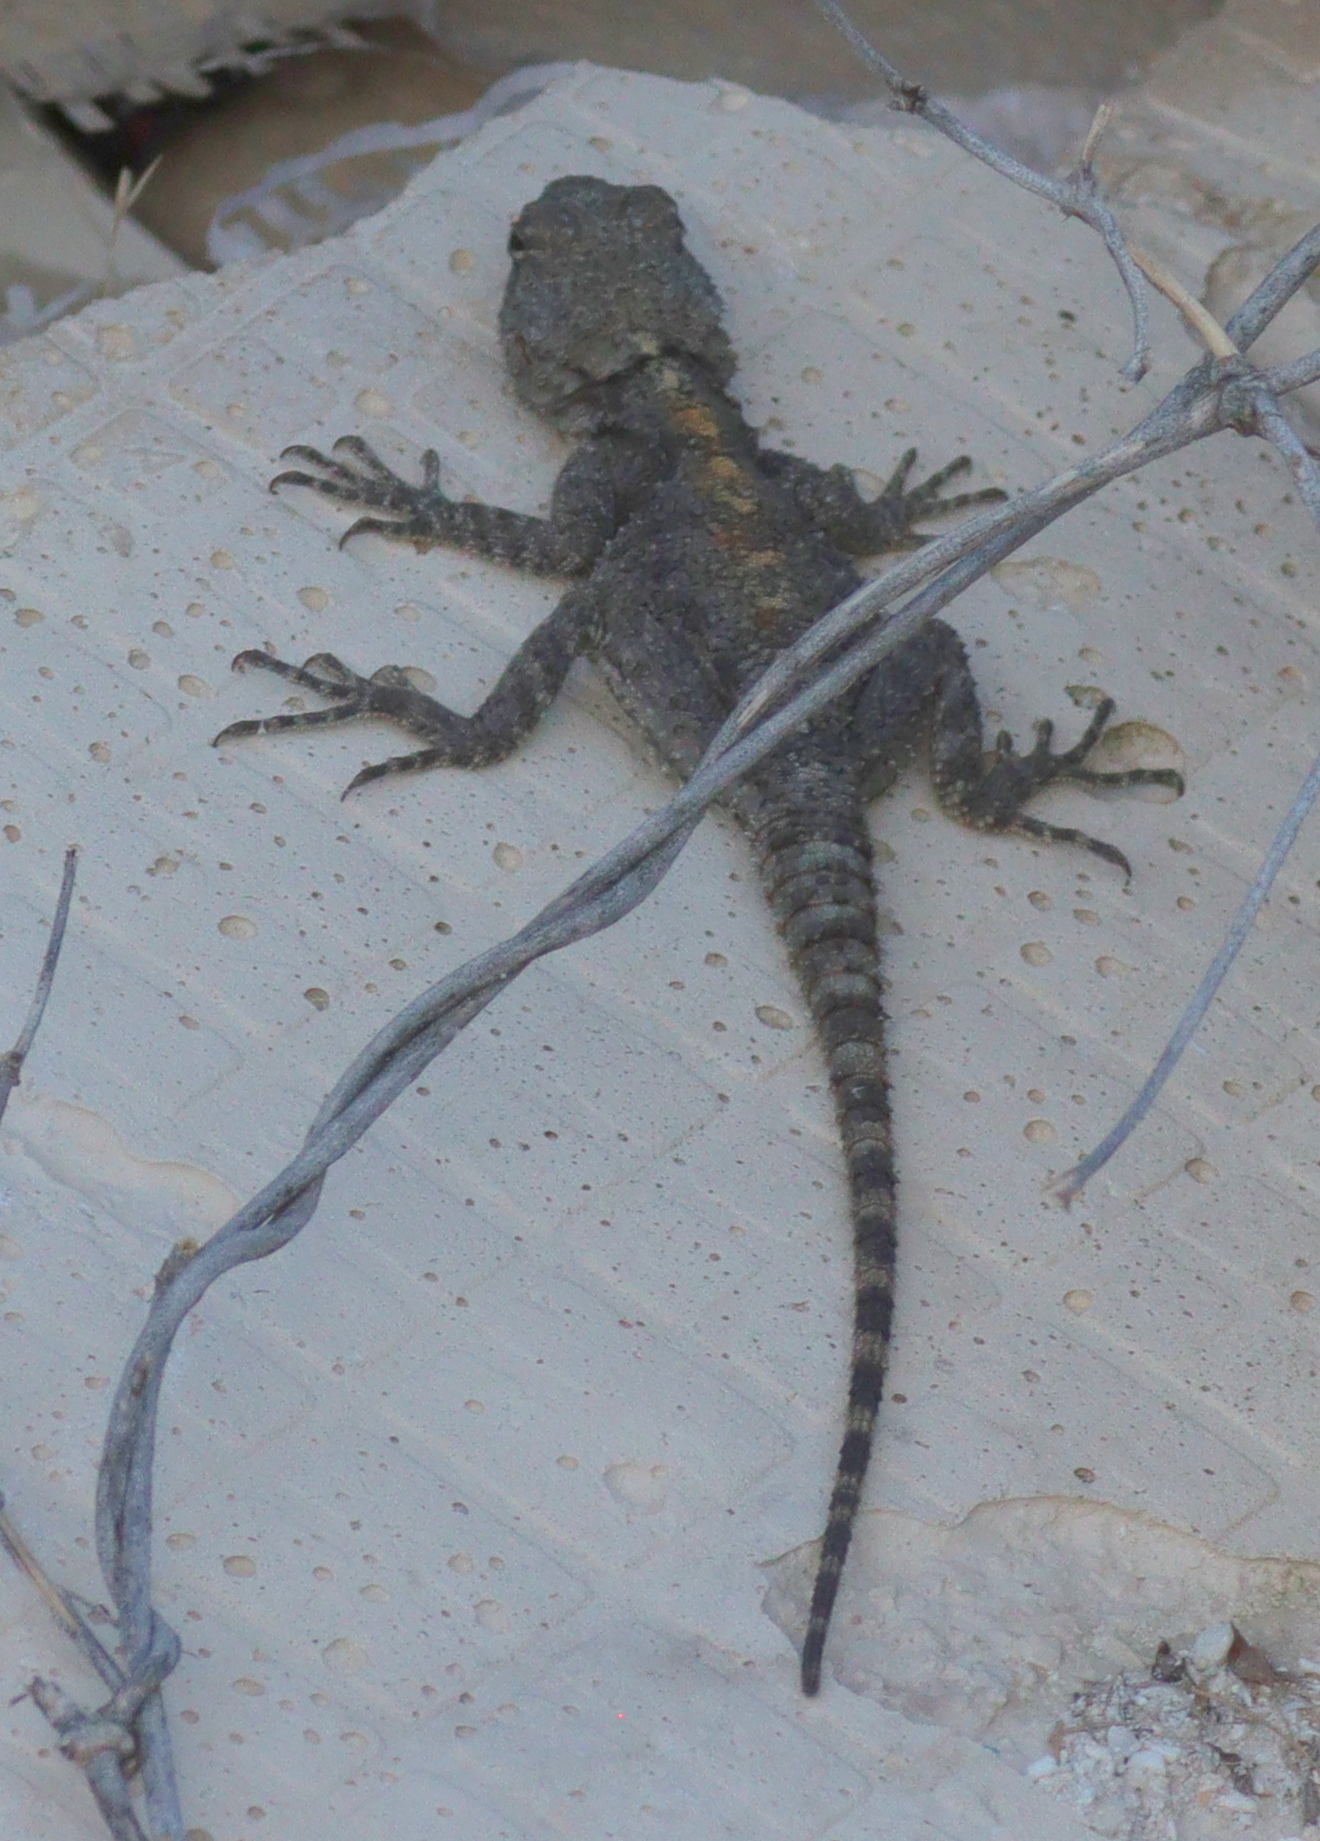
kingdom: Animalia
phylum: Chordata
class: Squamata
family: Agamidae
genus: Stellagama
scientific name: Stellagama stellio
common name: Starred agama
